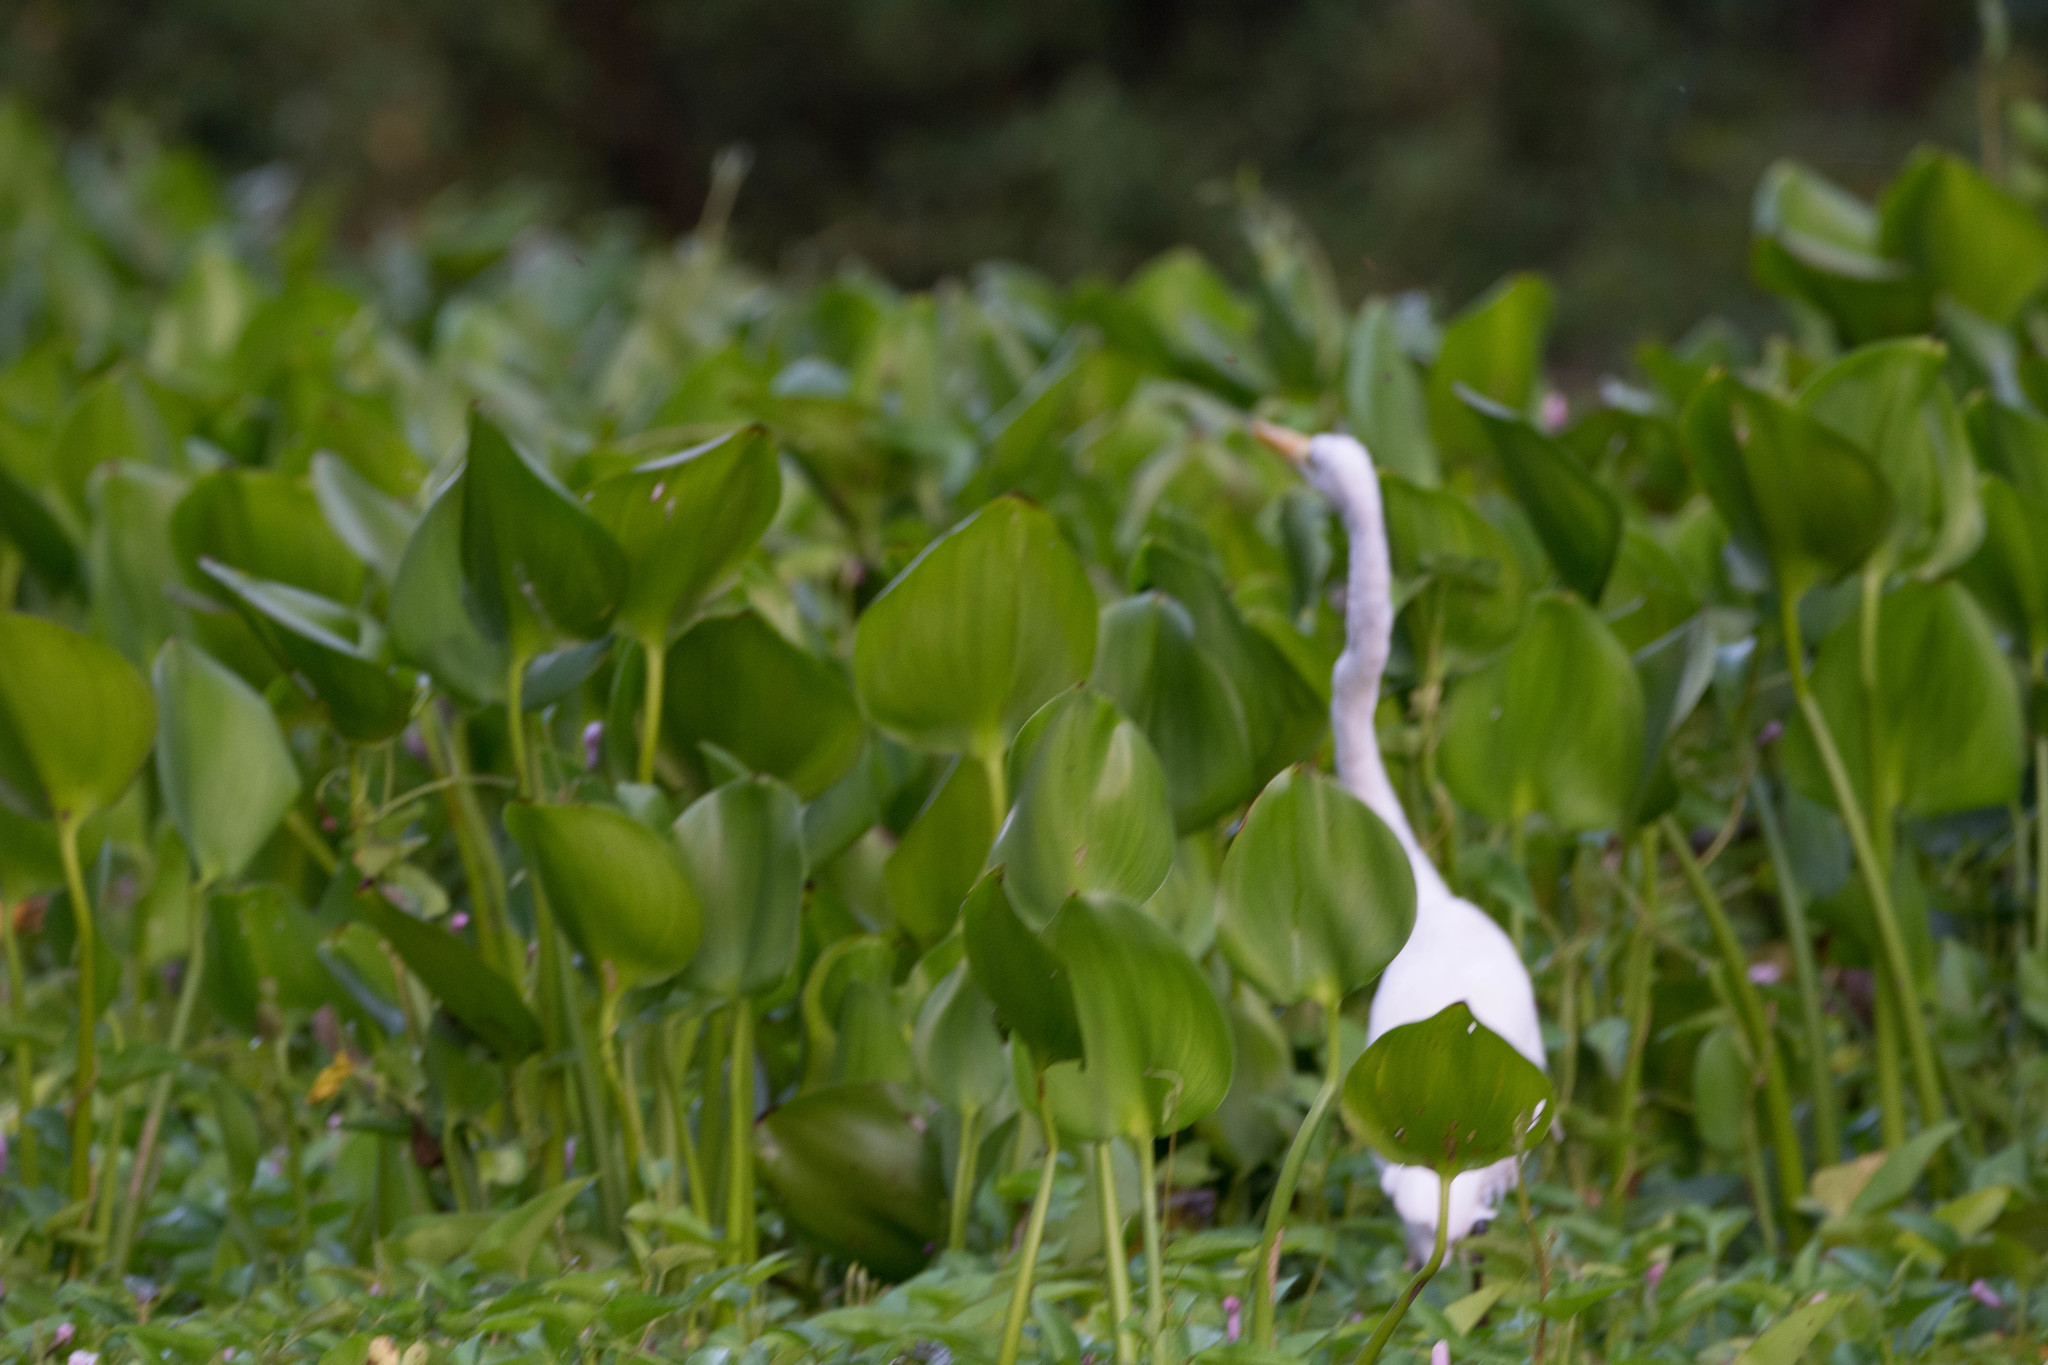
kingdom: Animalia
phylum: Chordata
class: Aves
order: Pelecaniformes
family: Ardeidae
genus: Ardea
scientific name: Ardea alba
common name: Great egret
